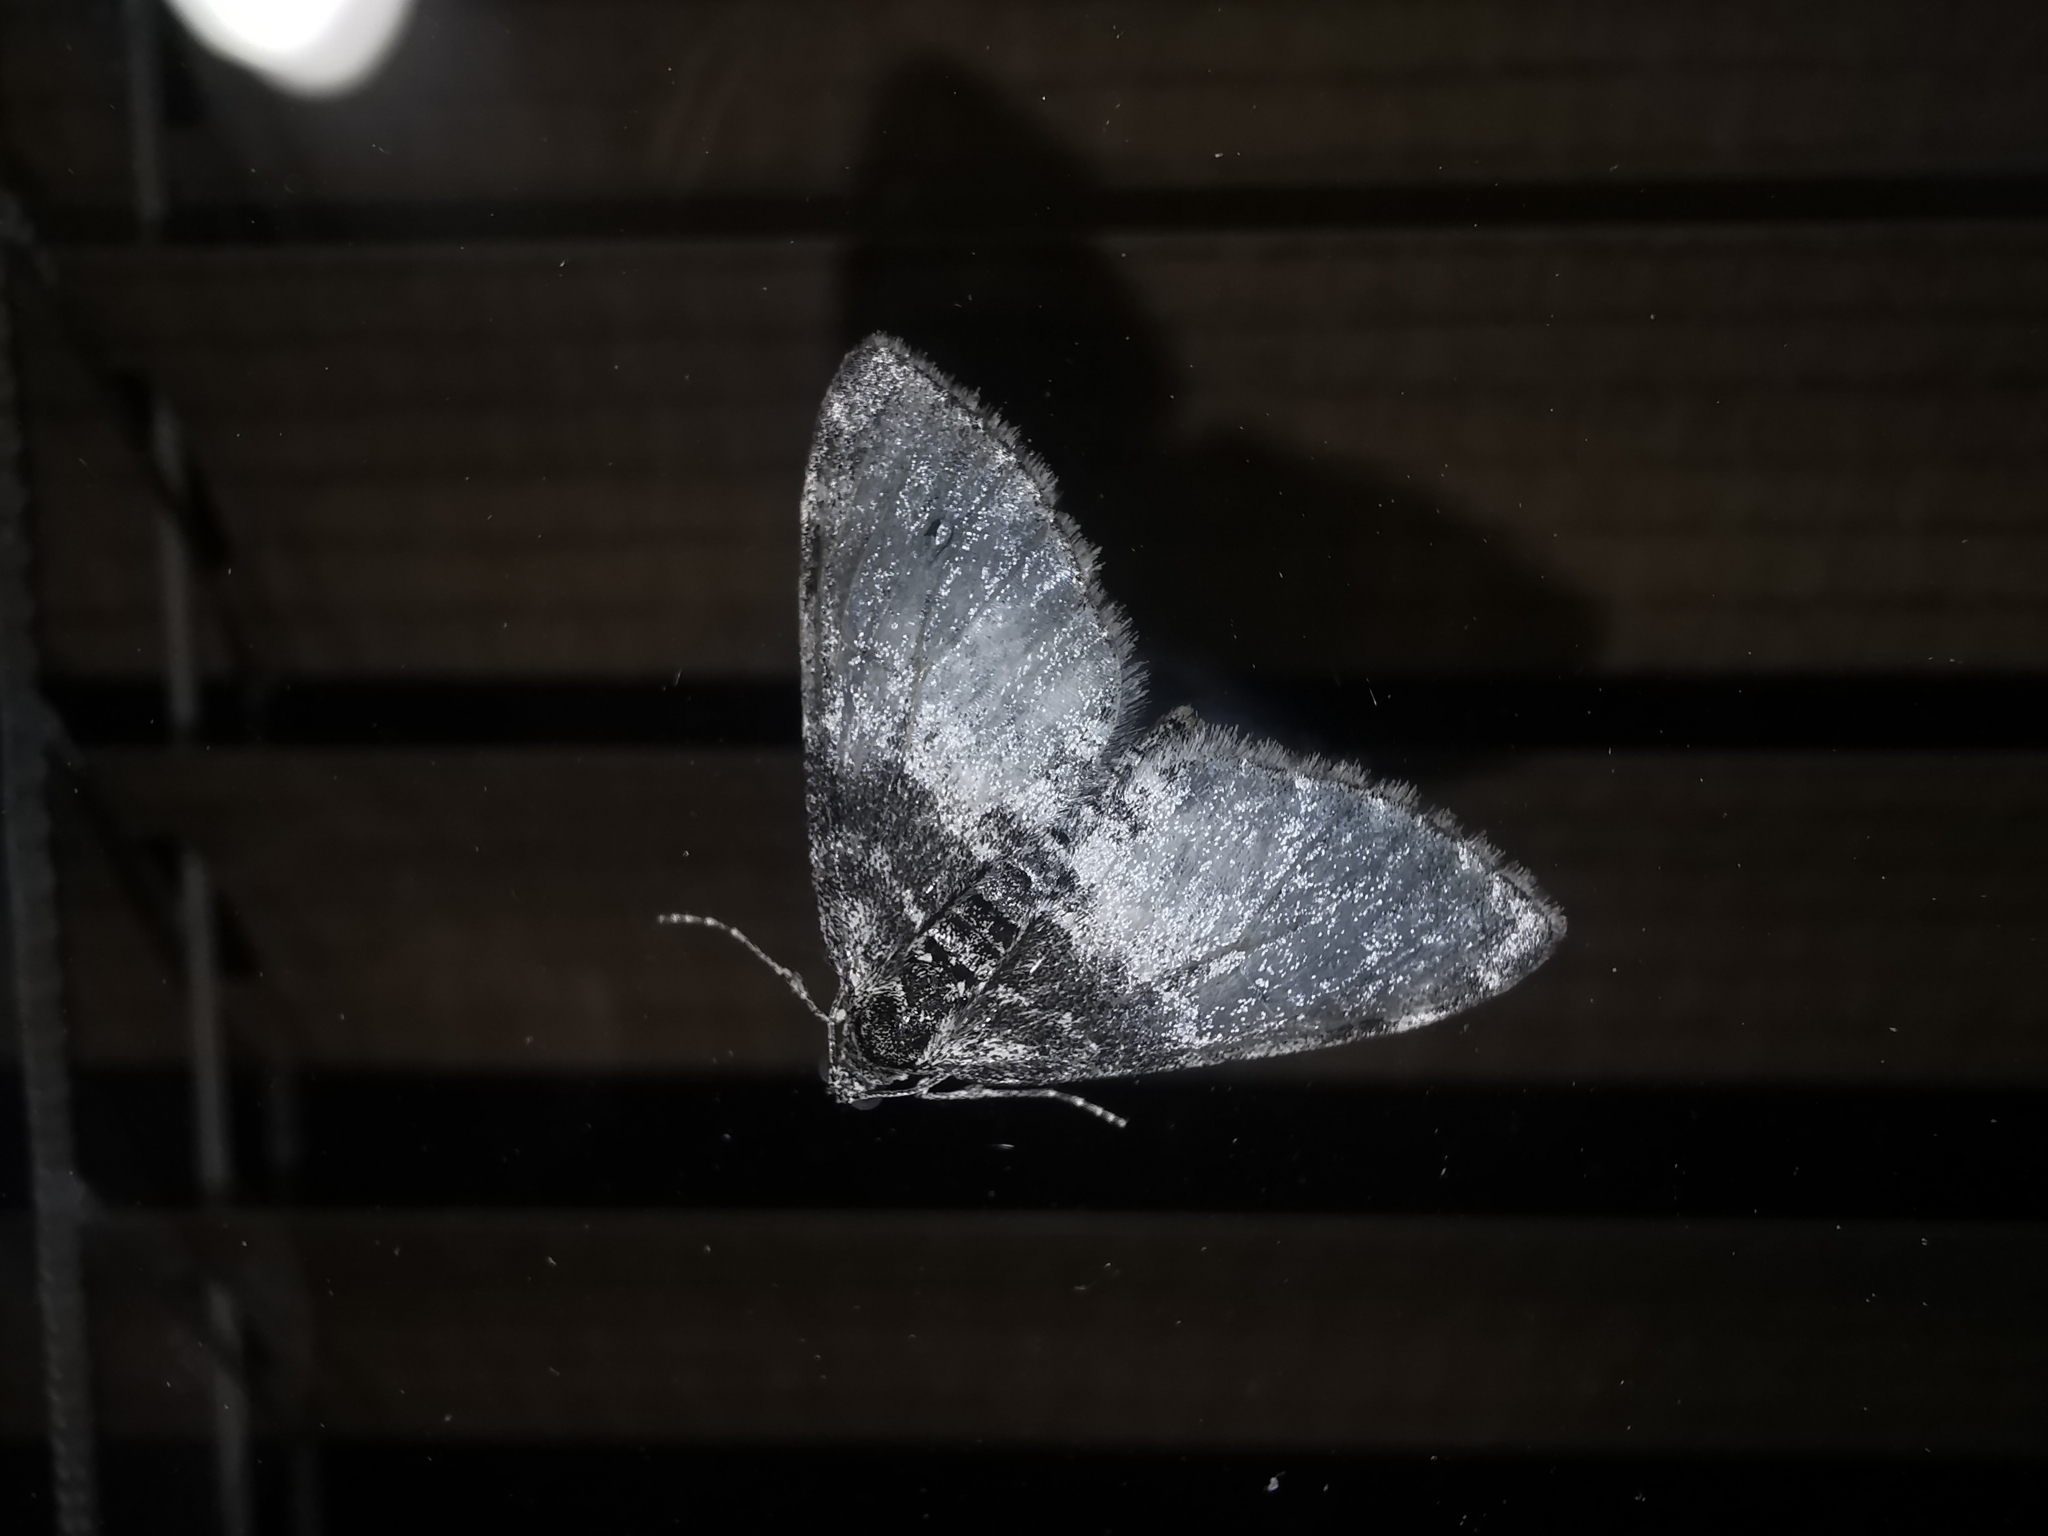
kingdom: Animalia
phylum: Arthropoda
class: Insecta
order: Lepidoptera
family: Geometridae
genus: Lobophora
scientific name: Lobophora halterata
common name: Seraphim
